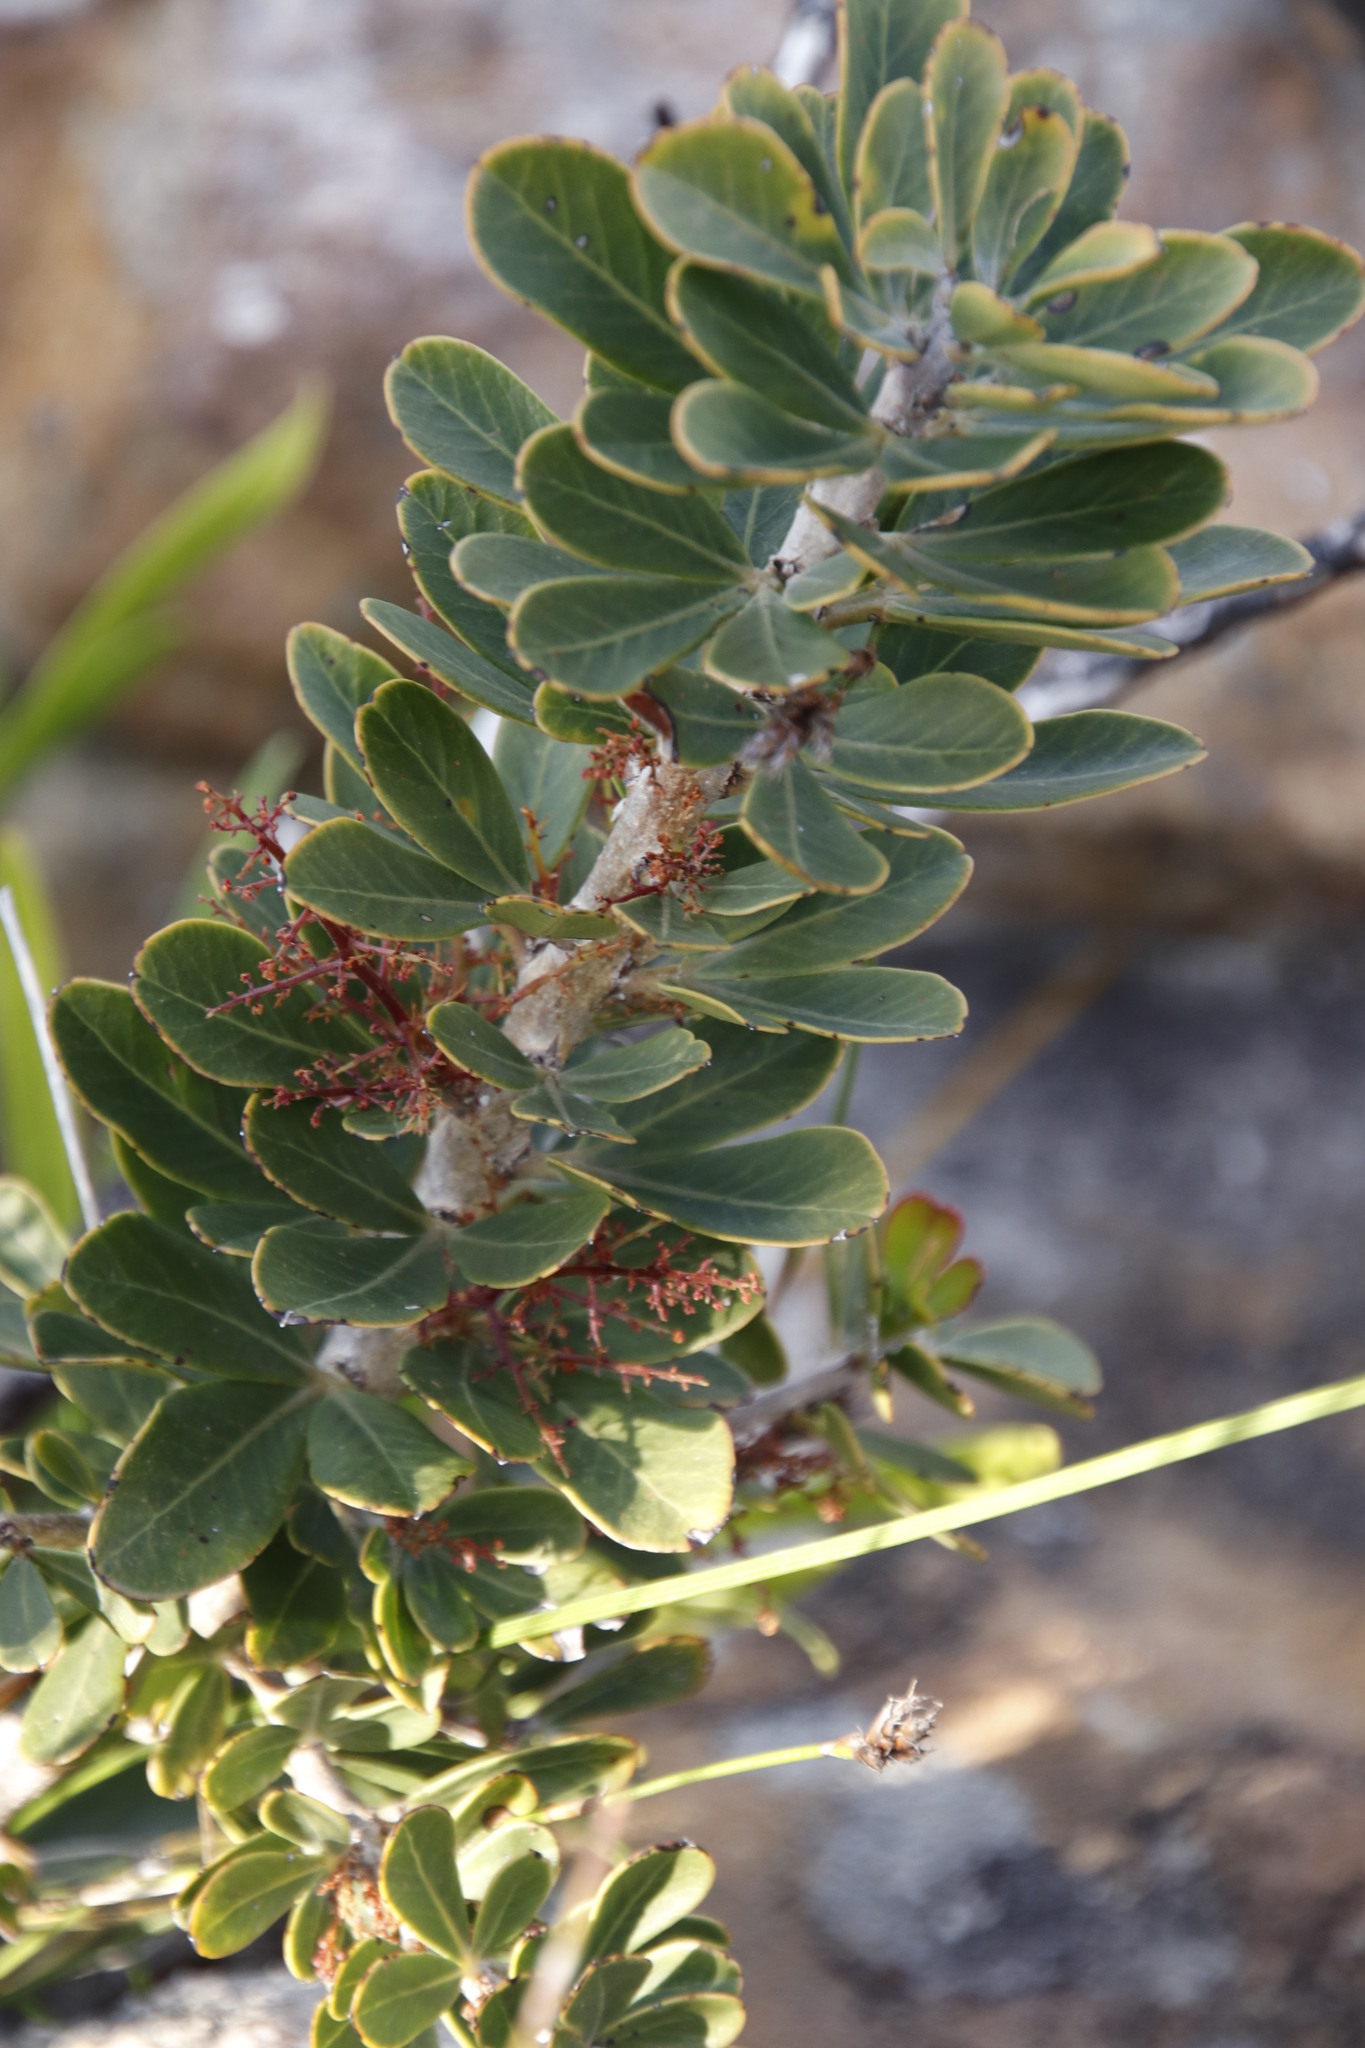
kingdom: Plantae
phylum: Tracheophyta
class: Magnoliopsida
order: Sapindales
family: Anacardiaceae
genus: Searsia
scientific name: Searsia scytophylla
